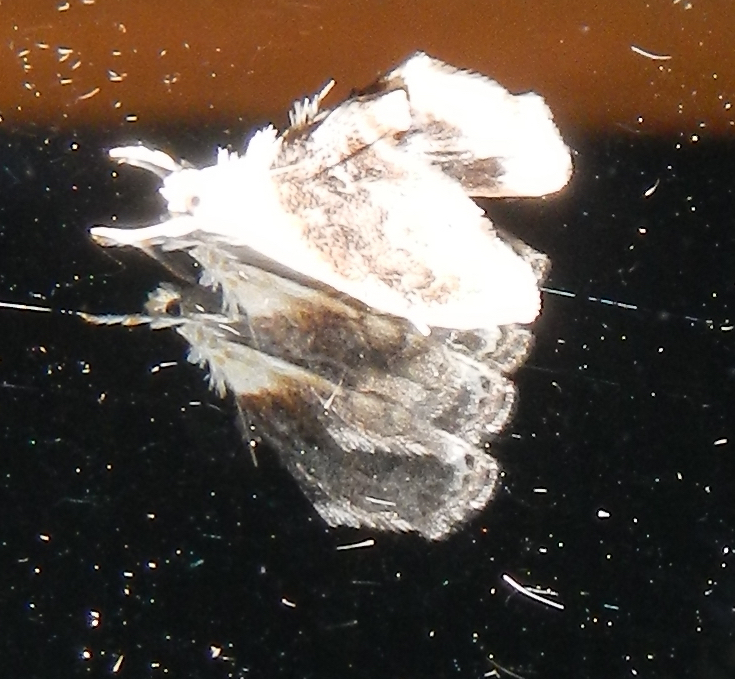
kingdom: Animalia
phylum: Arthropoda
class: Insecta
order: Lepidoptera
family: Crambidae
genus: Lipocosmodes
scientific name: Lipocosmodes fuliginosalis
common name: Sooty lipocosmodes moth
